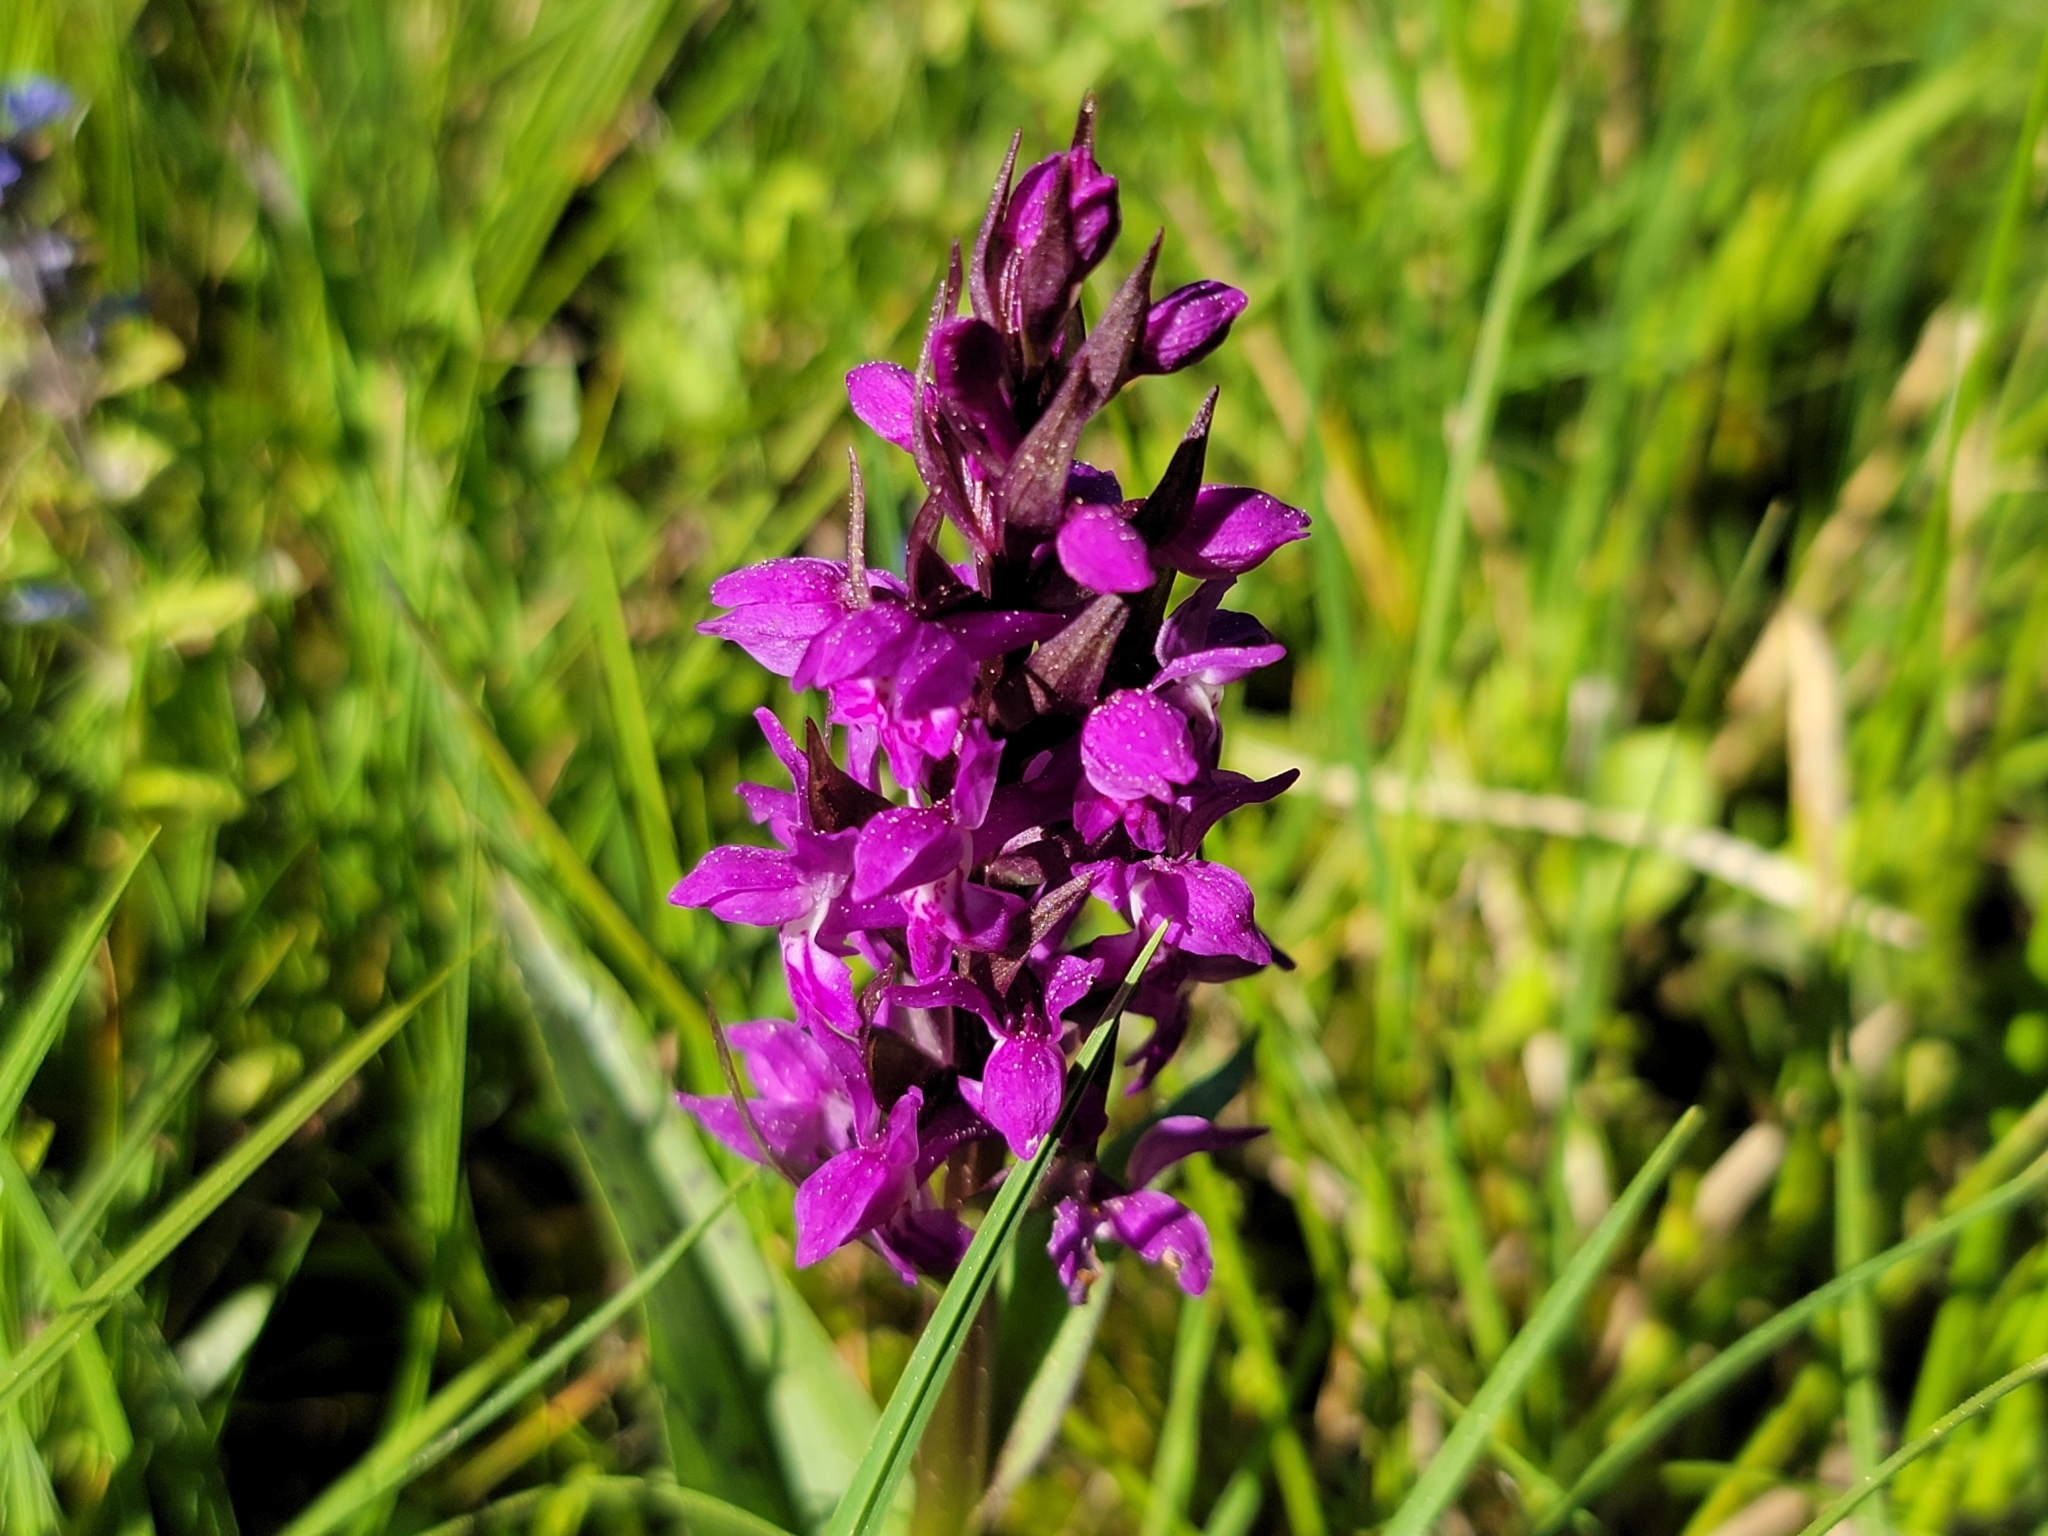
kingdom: Plantae
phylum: Tracheophyta
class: Liliopsida
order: Asparagales
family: Orchidaceae
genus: Dactylorhiza
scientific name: Dactylorhiza majalis
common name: Marsh orchid
